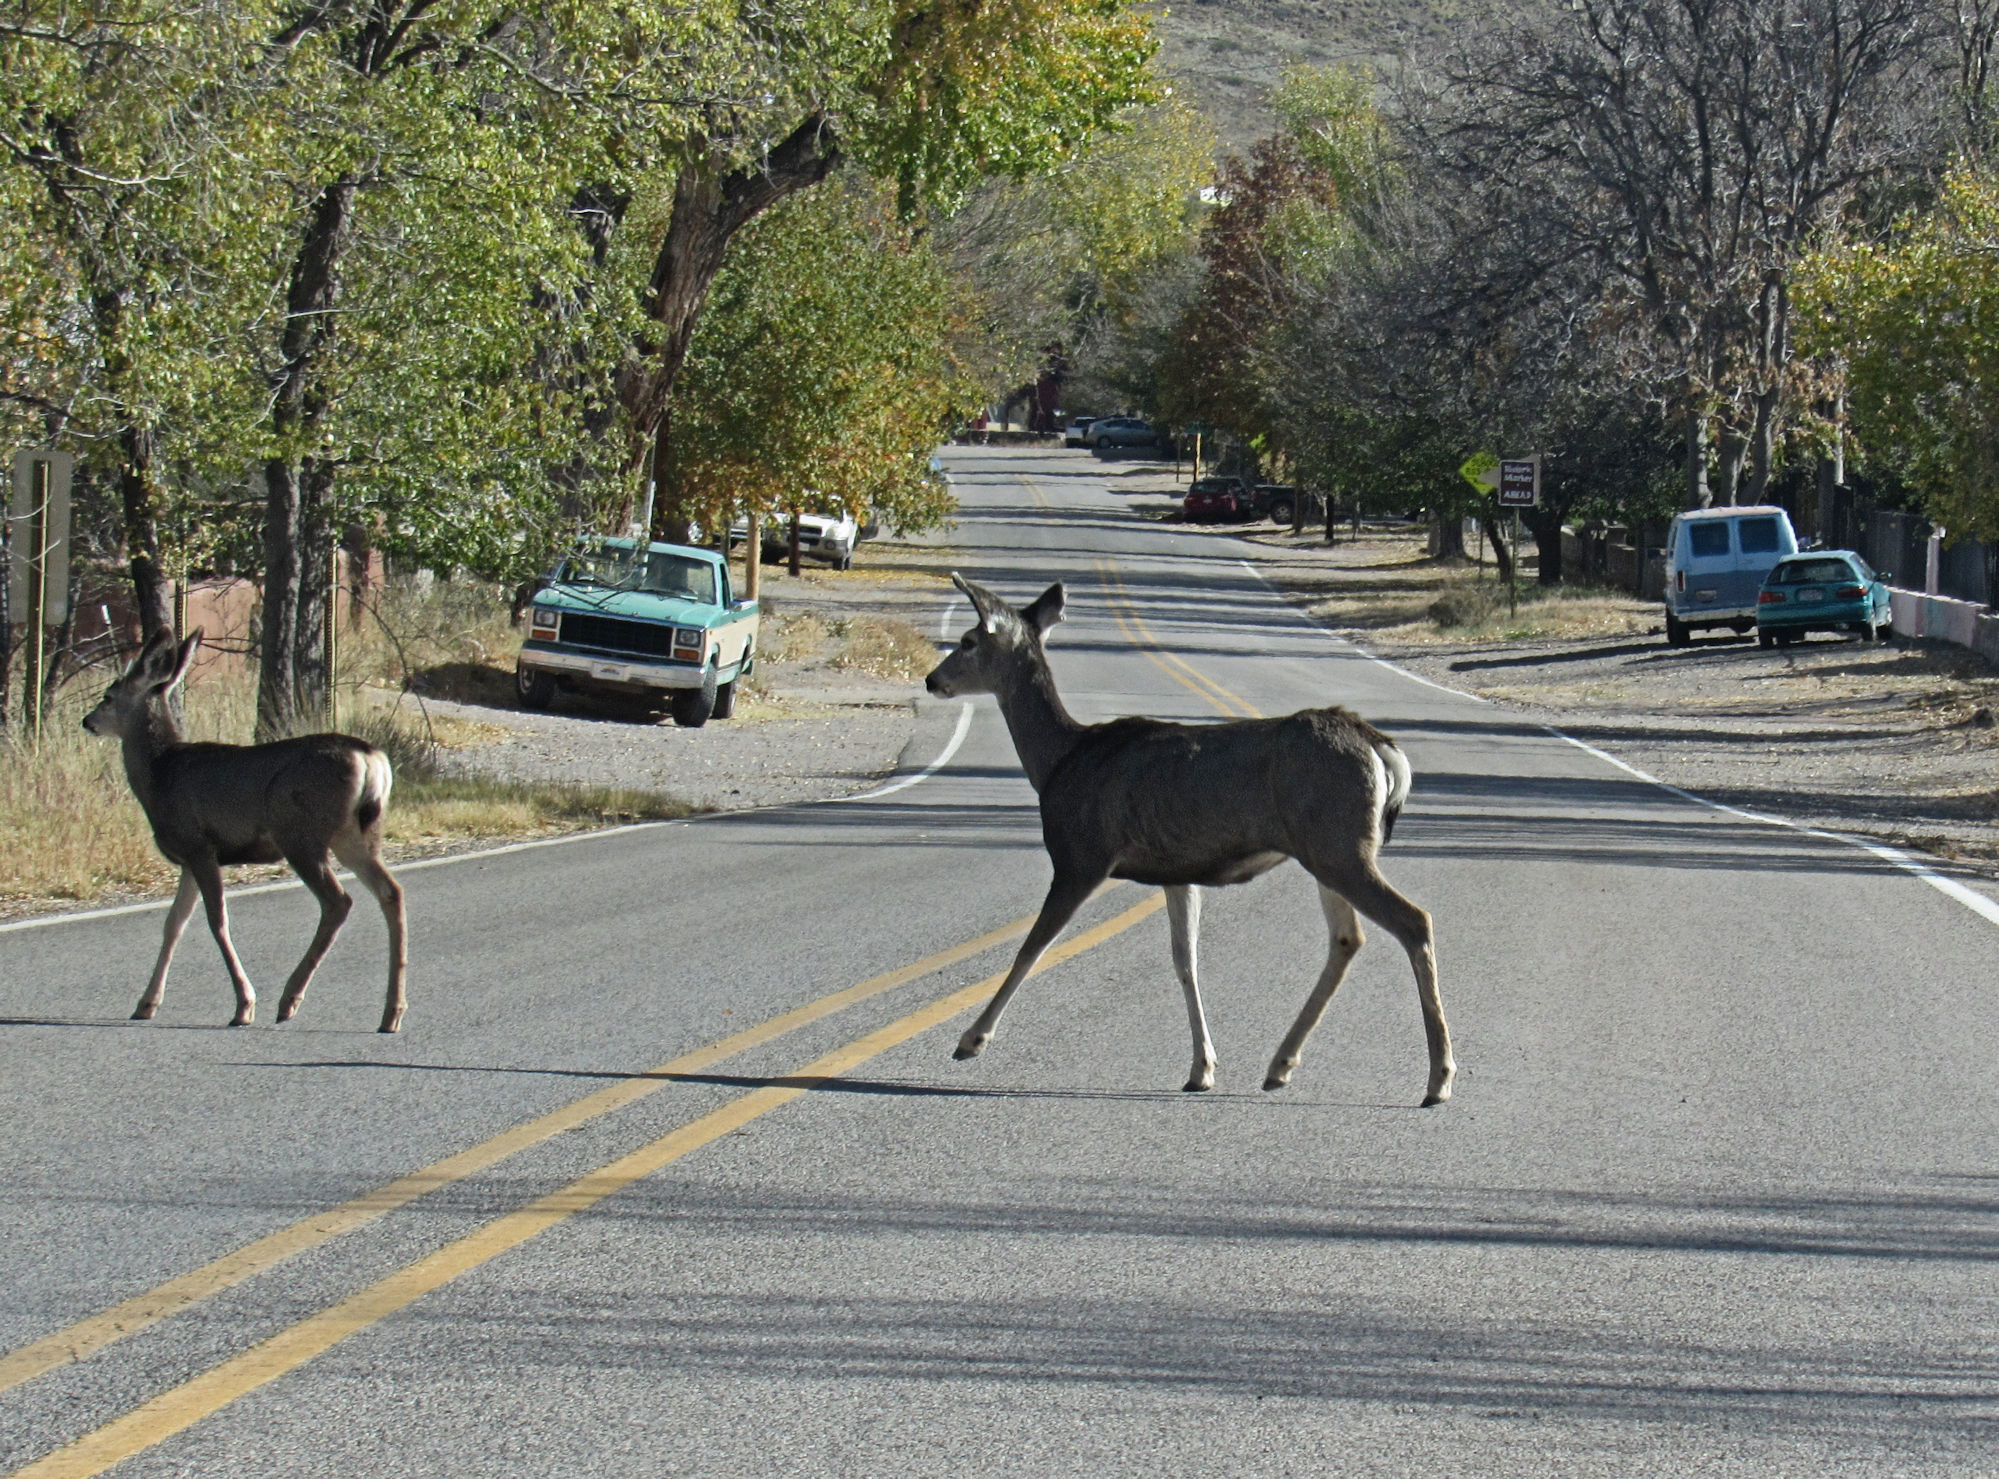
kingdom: Animalia
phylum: Chordata
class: Mammalia
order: Artiodactyla
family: Cervidae
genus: Odocoileus
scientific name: Odocoileus hemionus
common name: Mule deer
